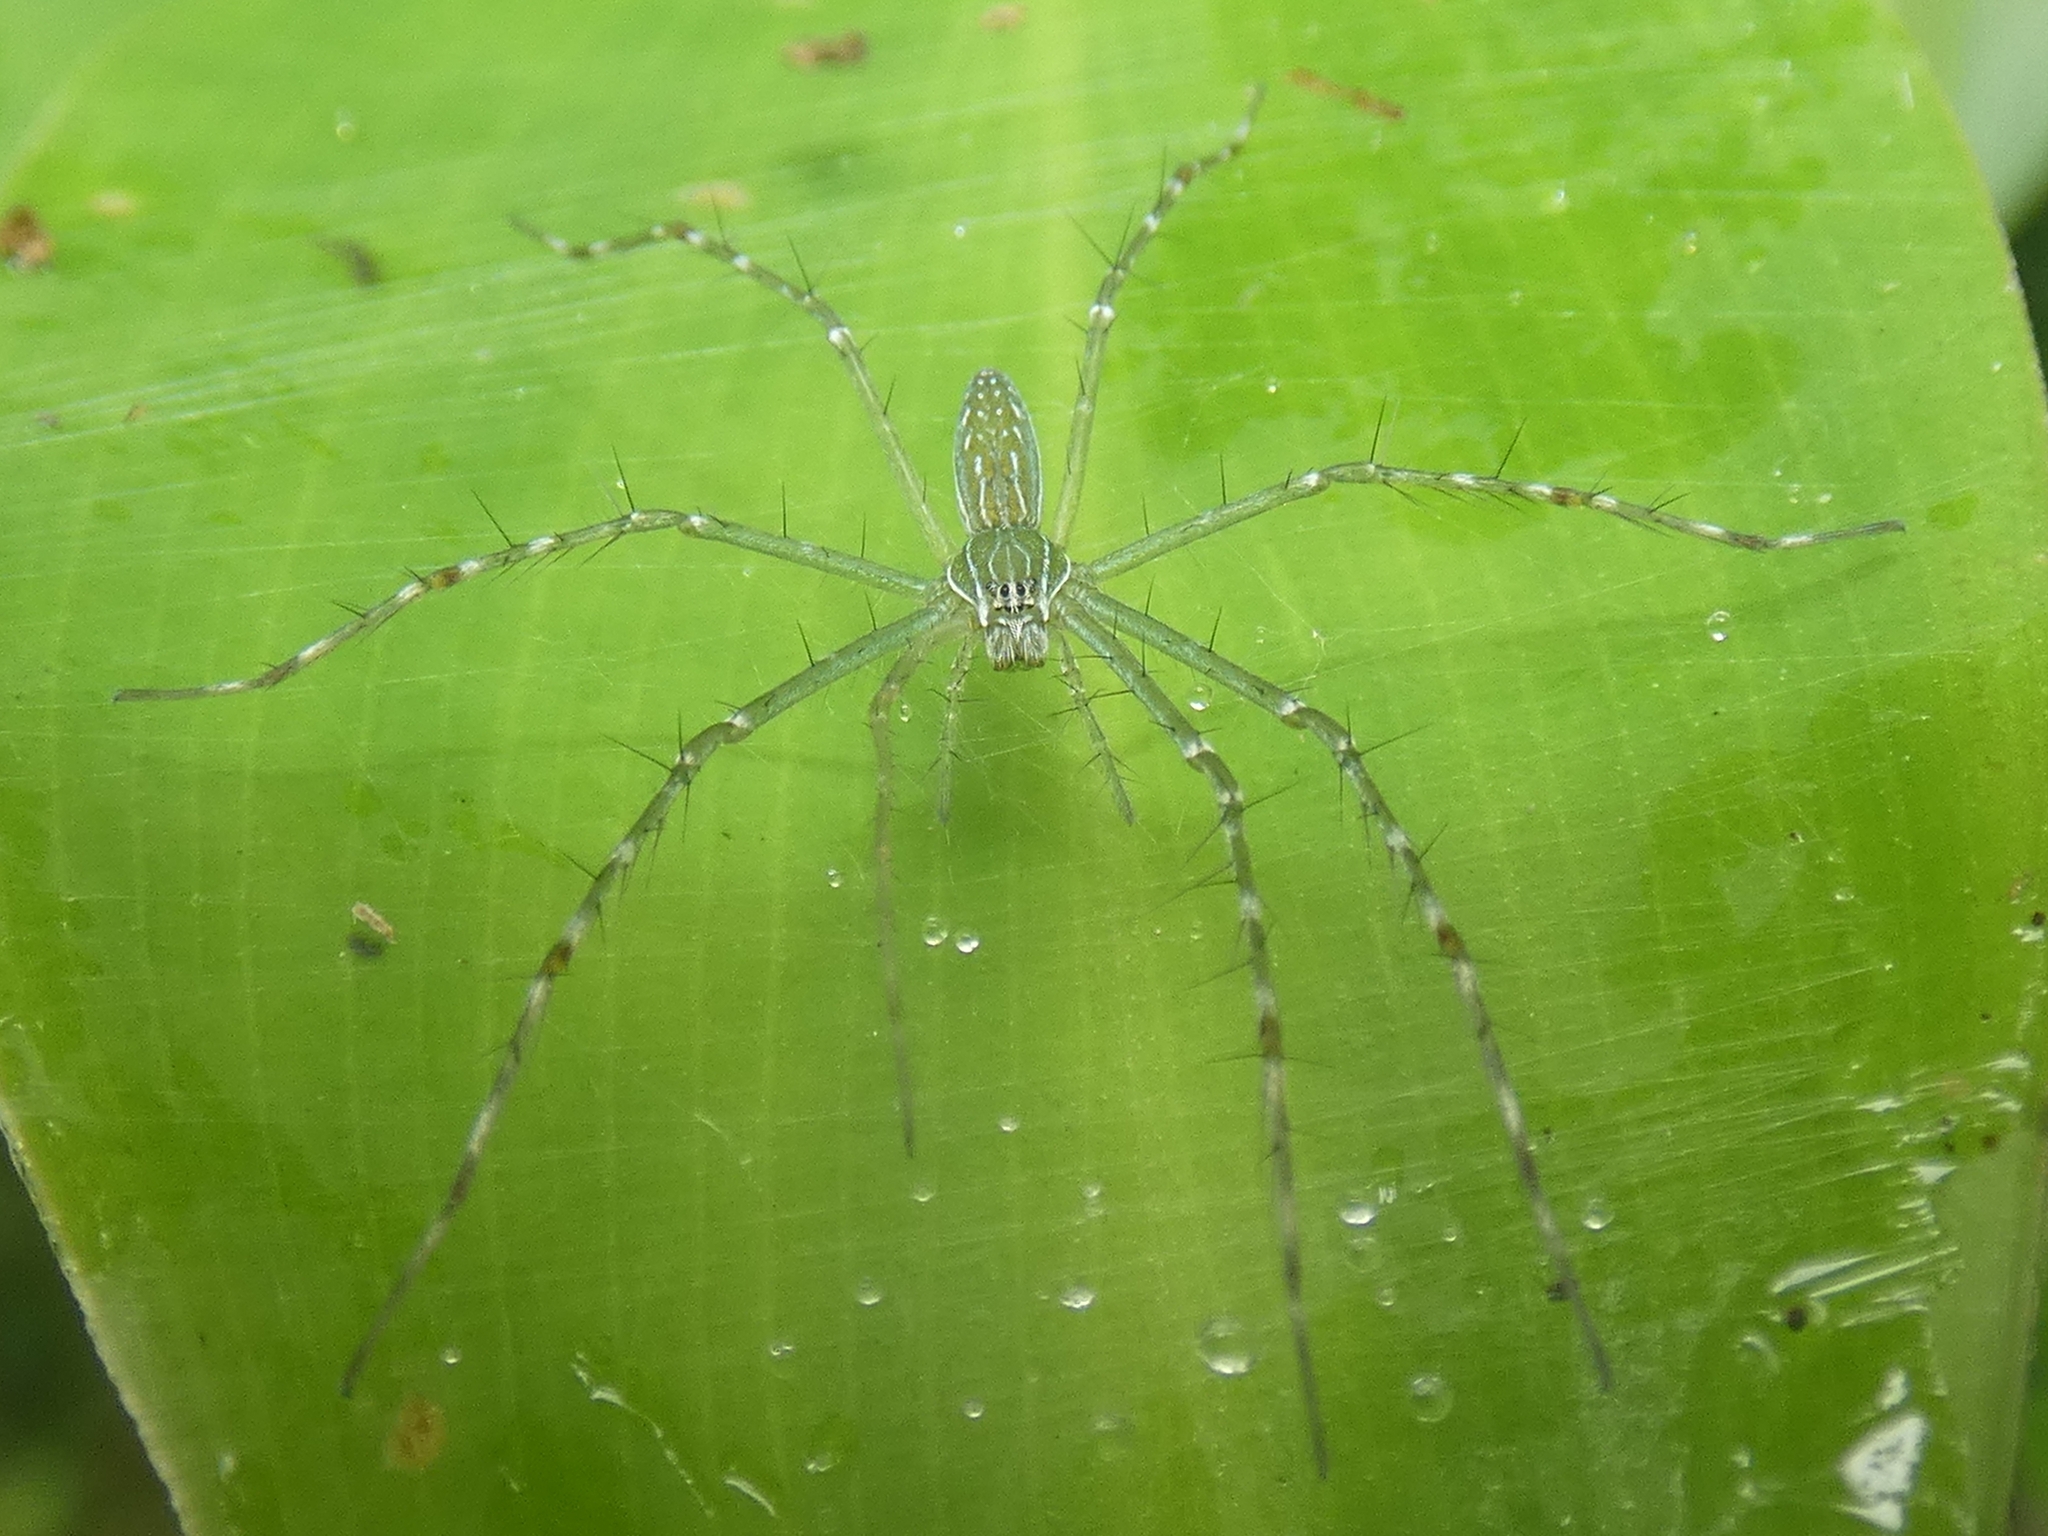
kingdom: Animalia
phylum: Arthropoda
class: Arachnida
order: Araneae
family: Pisauridae
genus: Hygropoda
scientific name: Hygropoda lineata
